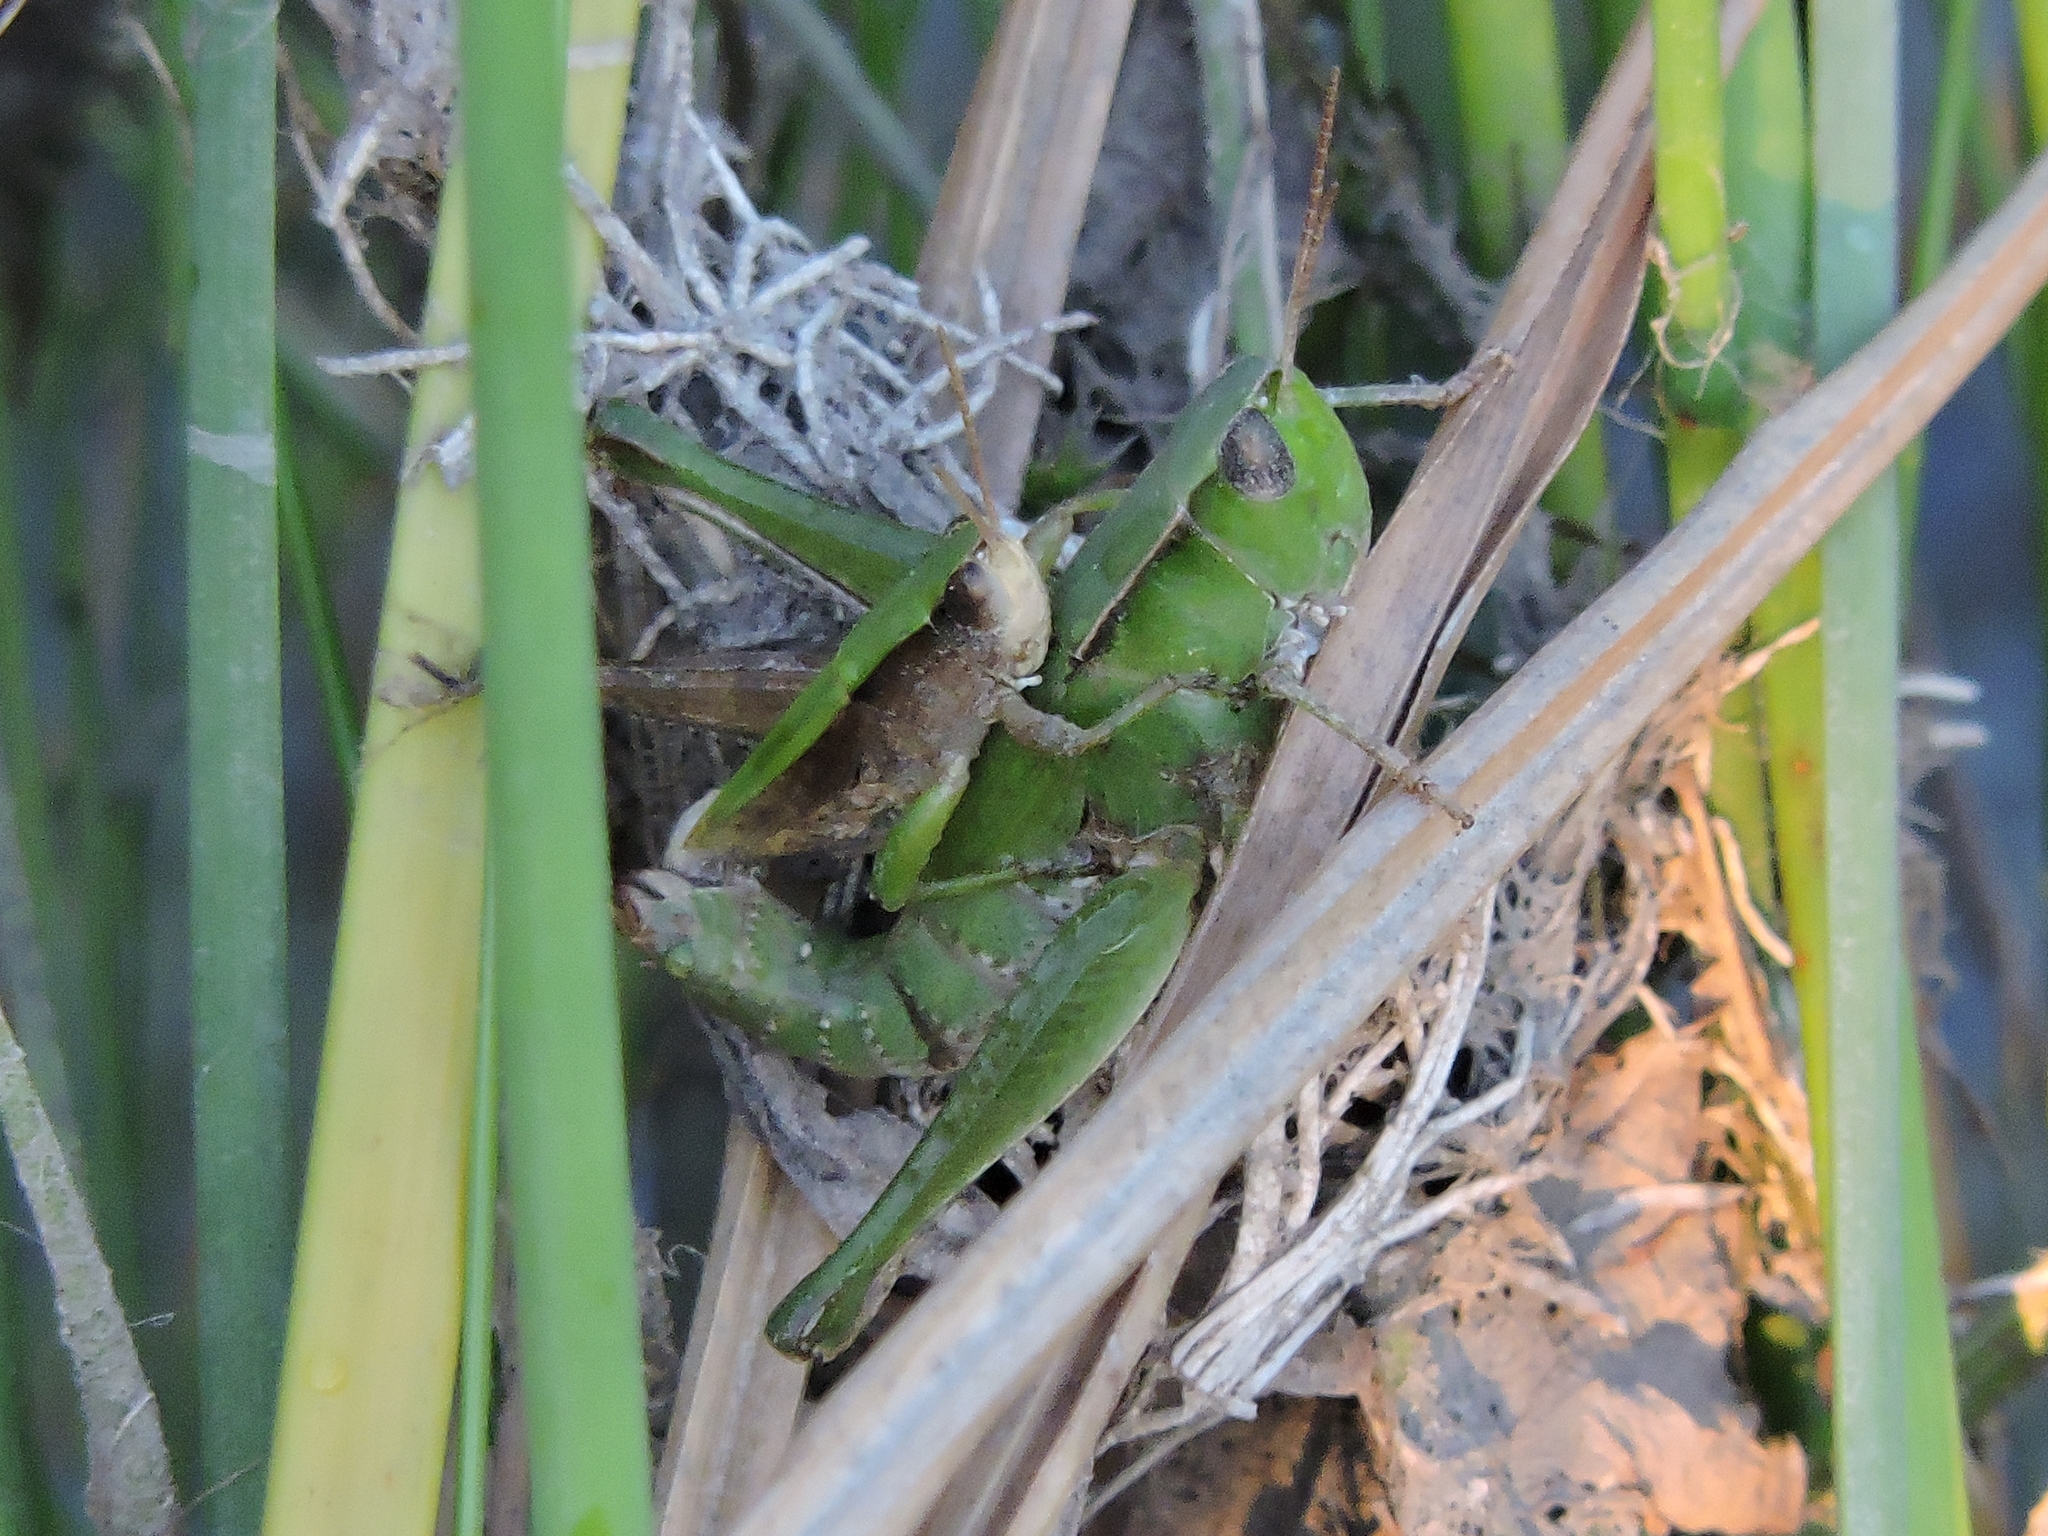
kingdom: Animalia
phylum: Arthropoda
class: Insecta
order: Orthoptera
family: Acrididae
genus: Dichromorpha
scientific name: Dichromorpha viridis
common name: Short-winged green grasshopper
